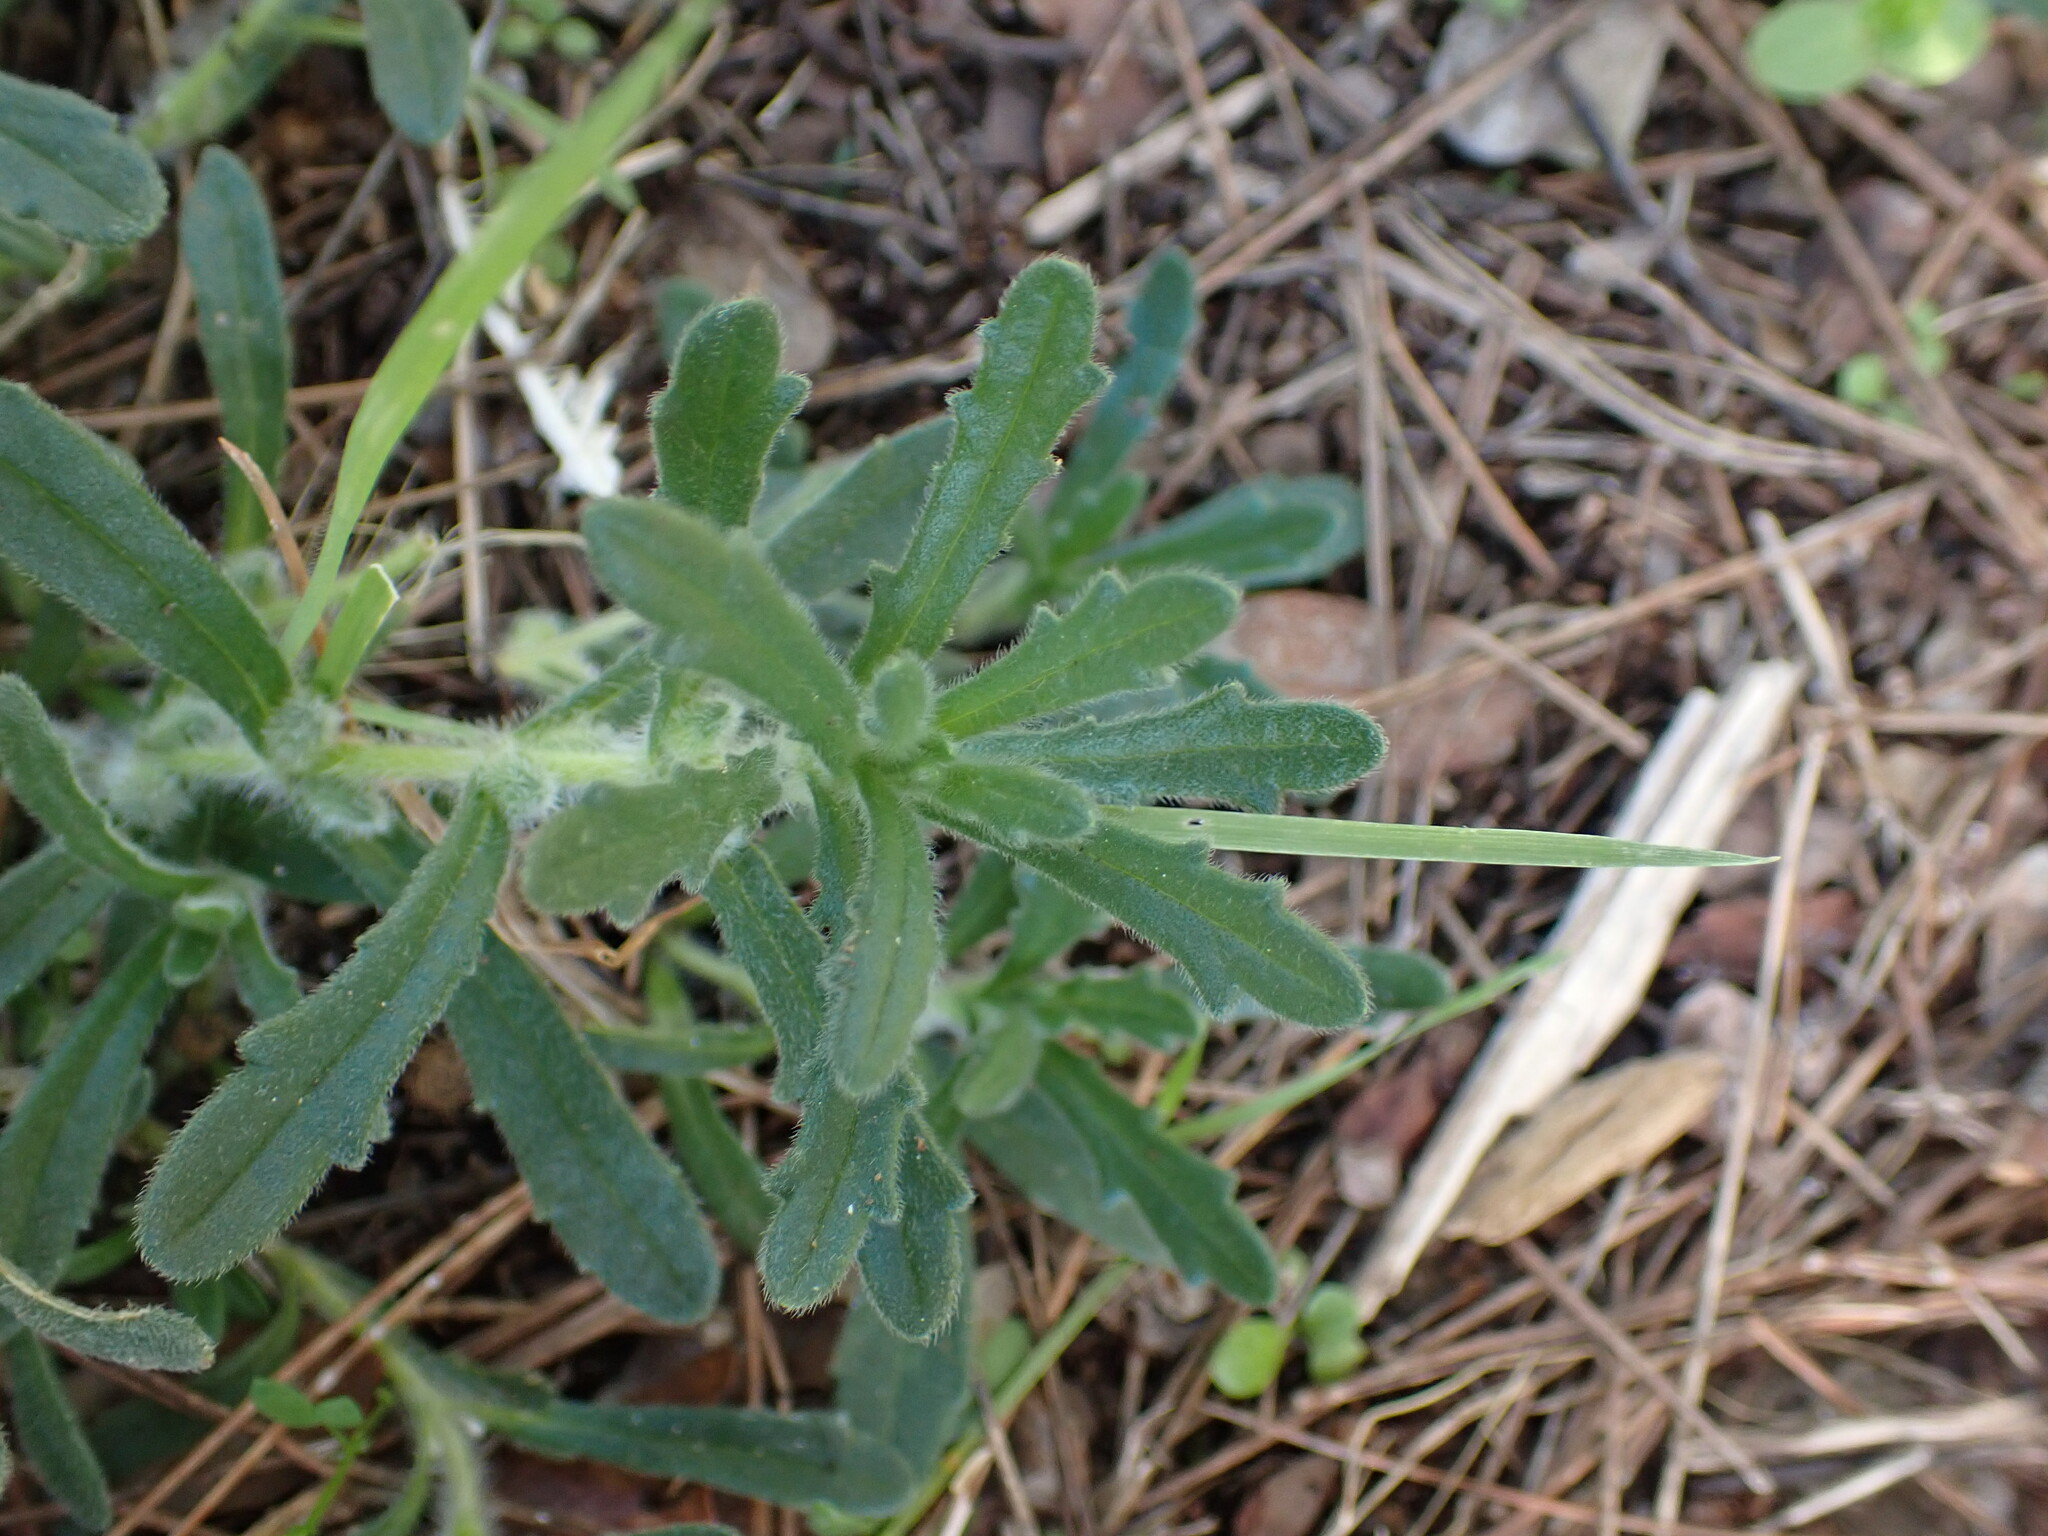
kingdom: Plantae
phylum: Tracheophyta
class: Magnoliopsida
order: Lamiales
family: Lamiaceae
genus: Ajuga
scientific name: Ajuga iva
